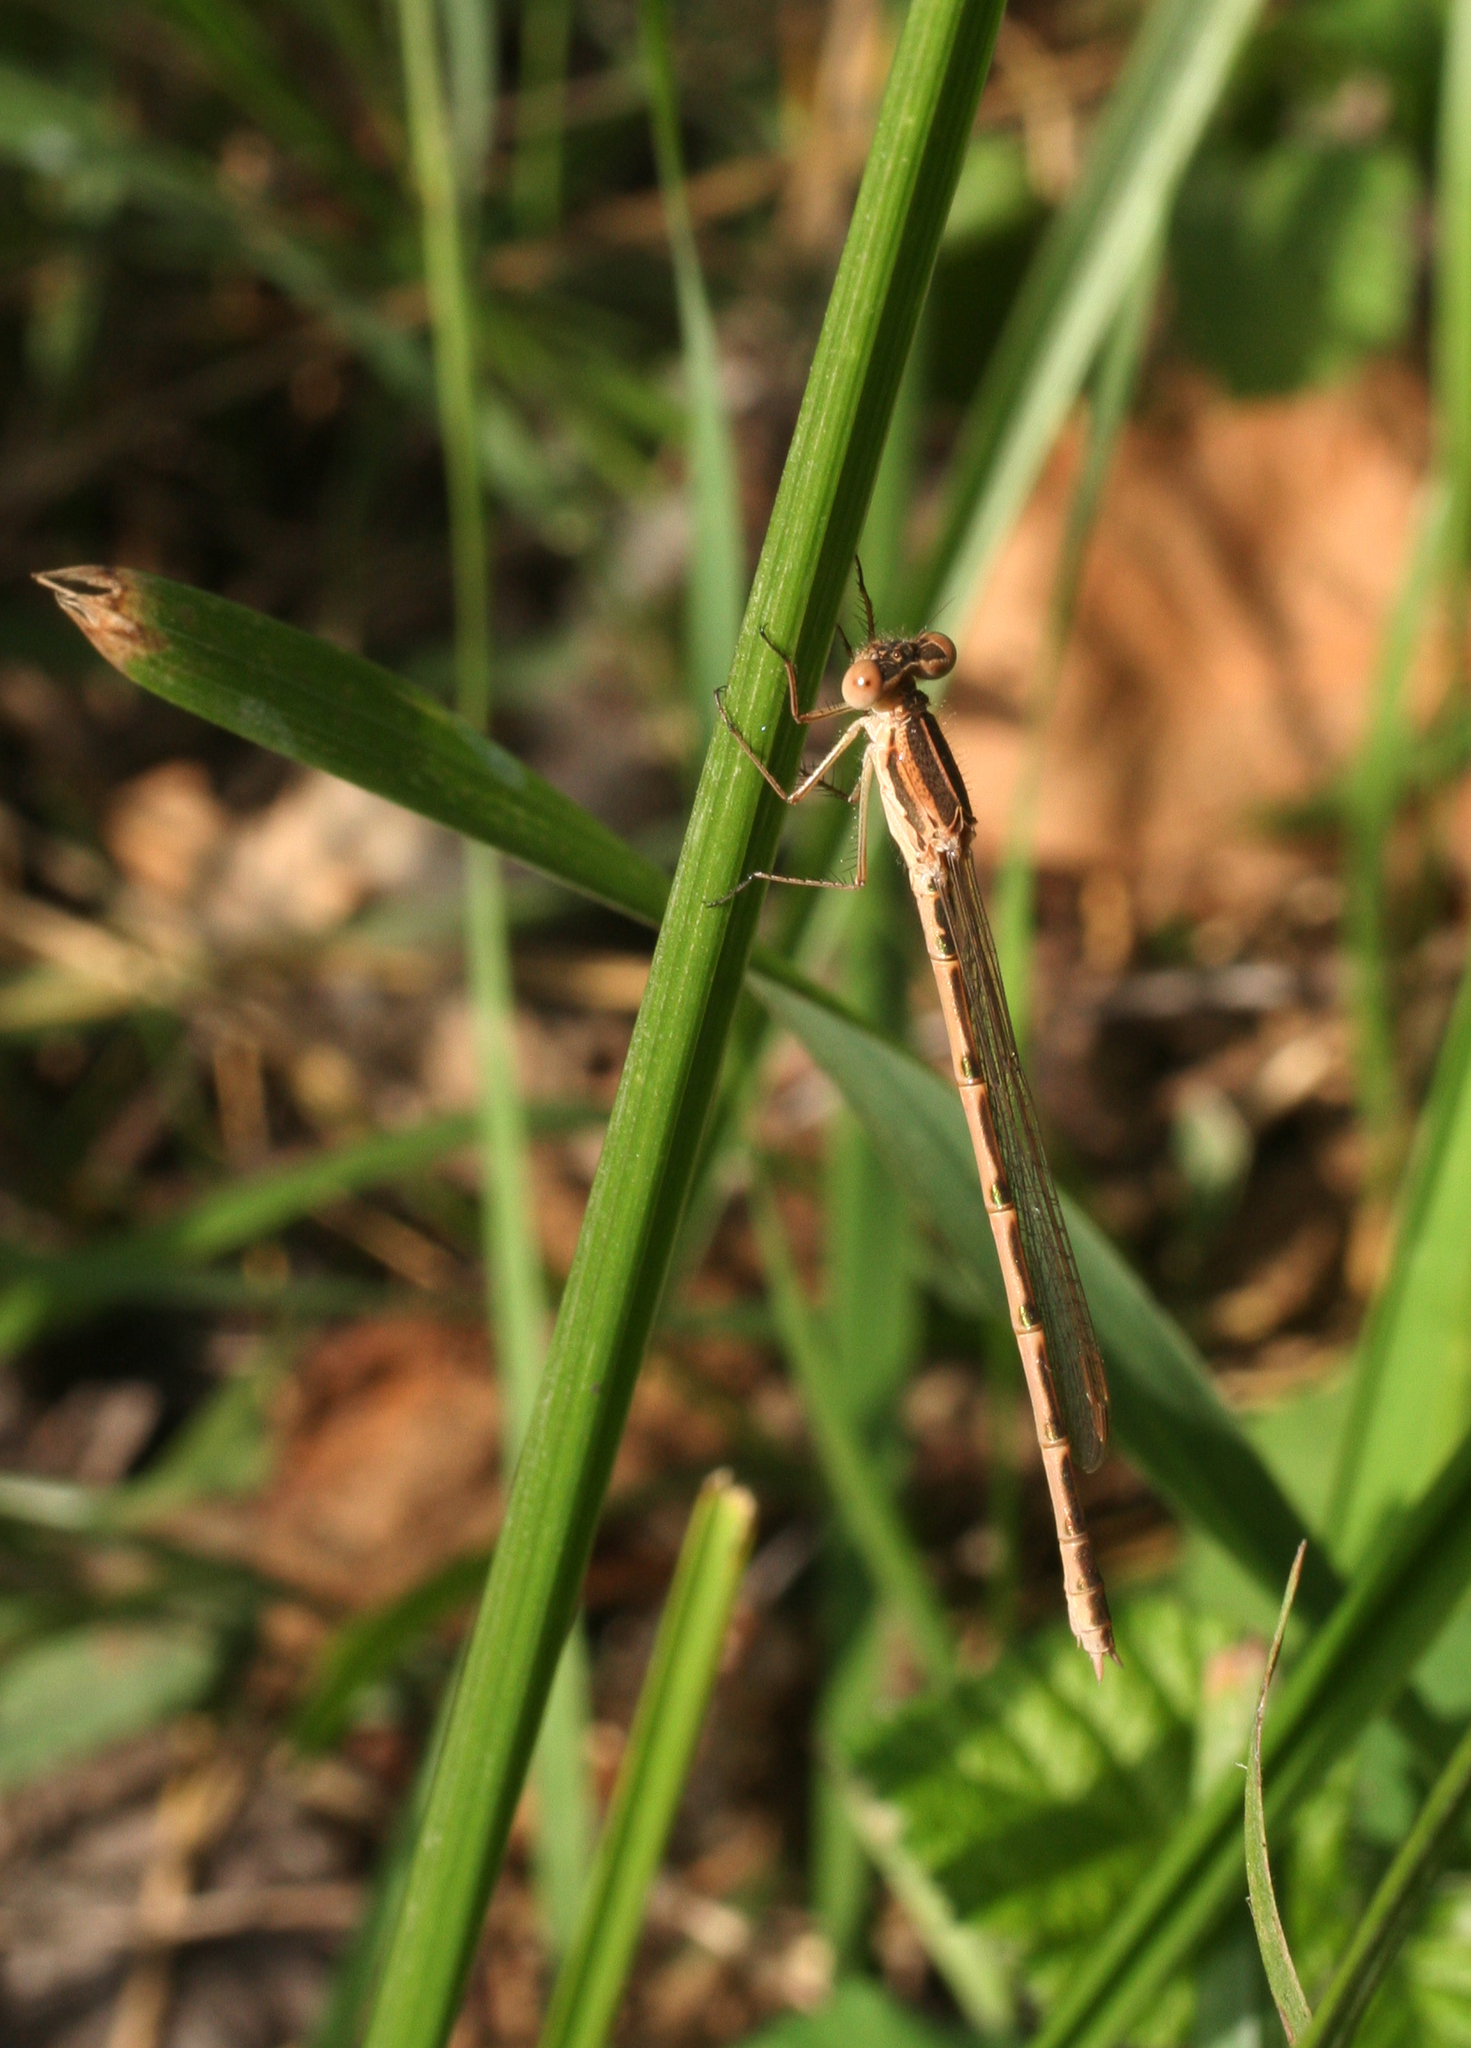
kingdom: Animalia
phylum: Arthropoda
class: Insecta
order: Odonata
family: Lestidae
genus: Sympecma
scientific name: Sympecma fusca
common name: Common winter damsel
